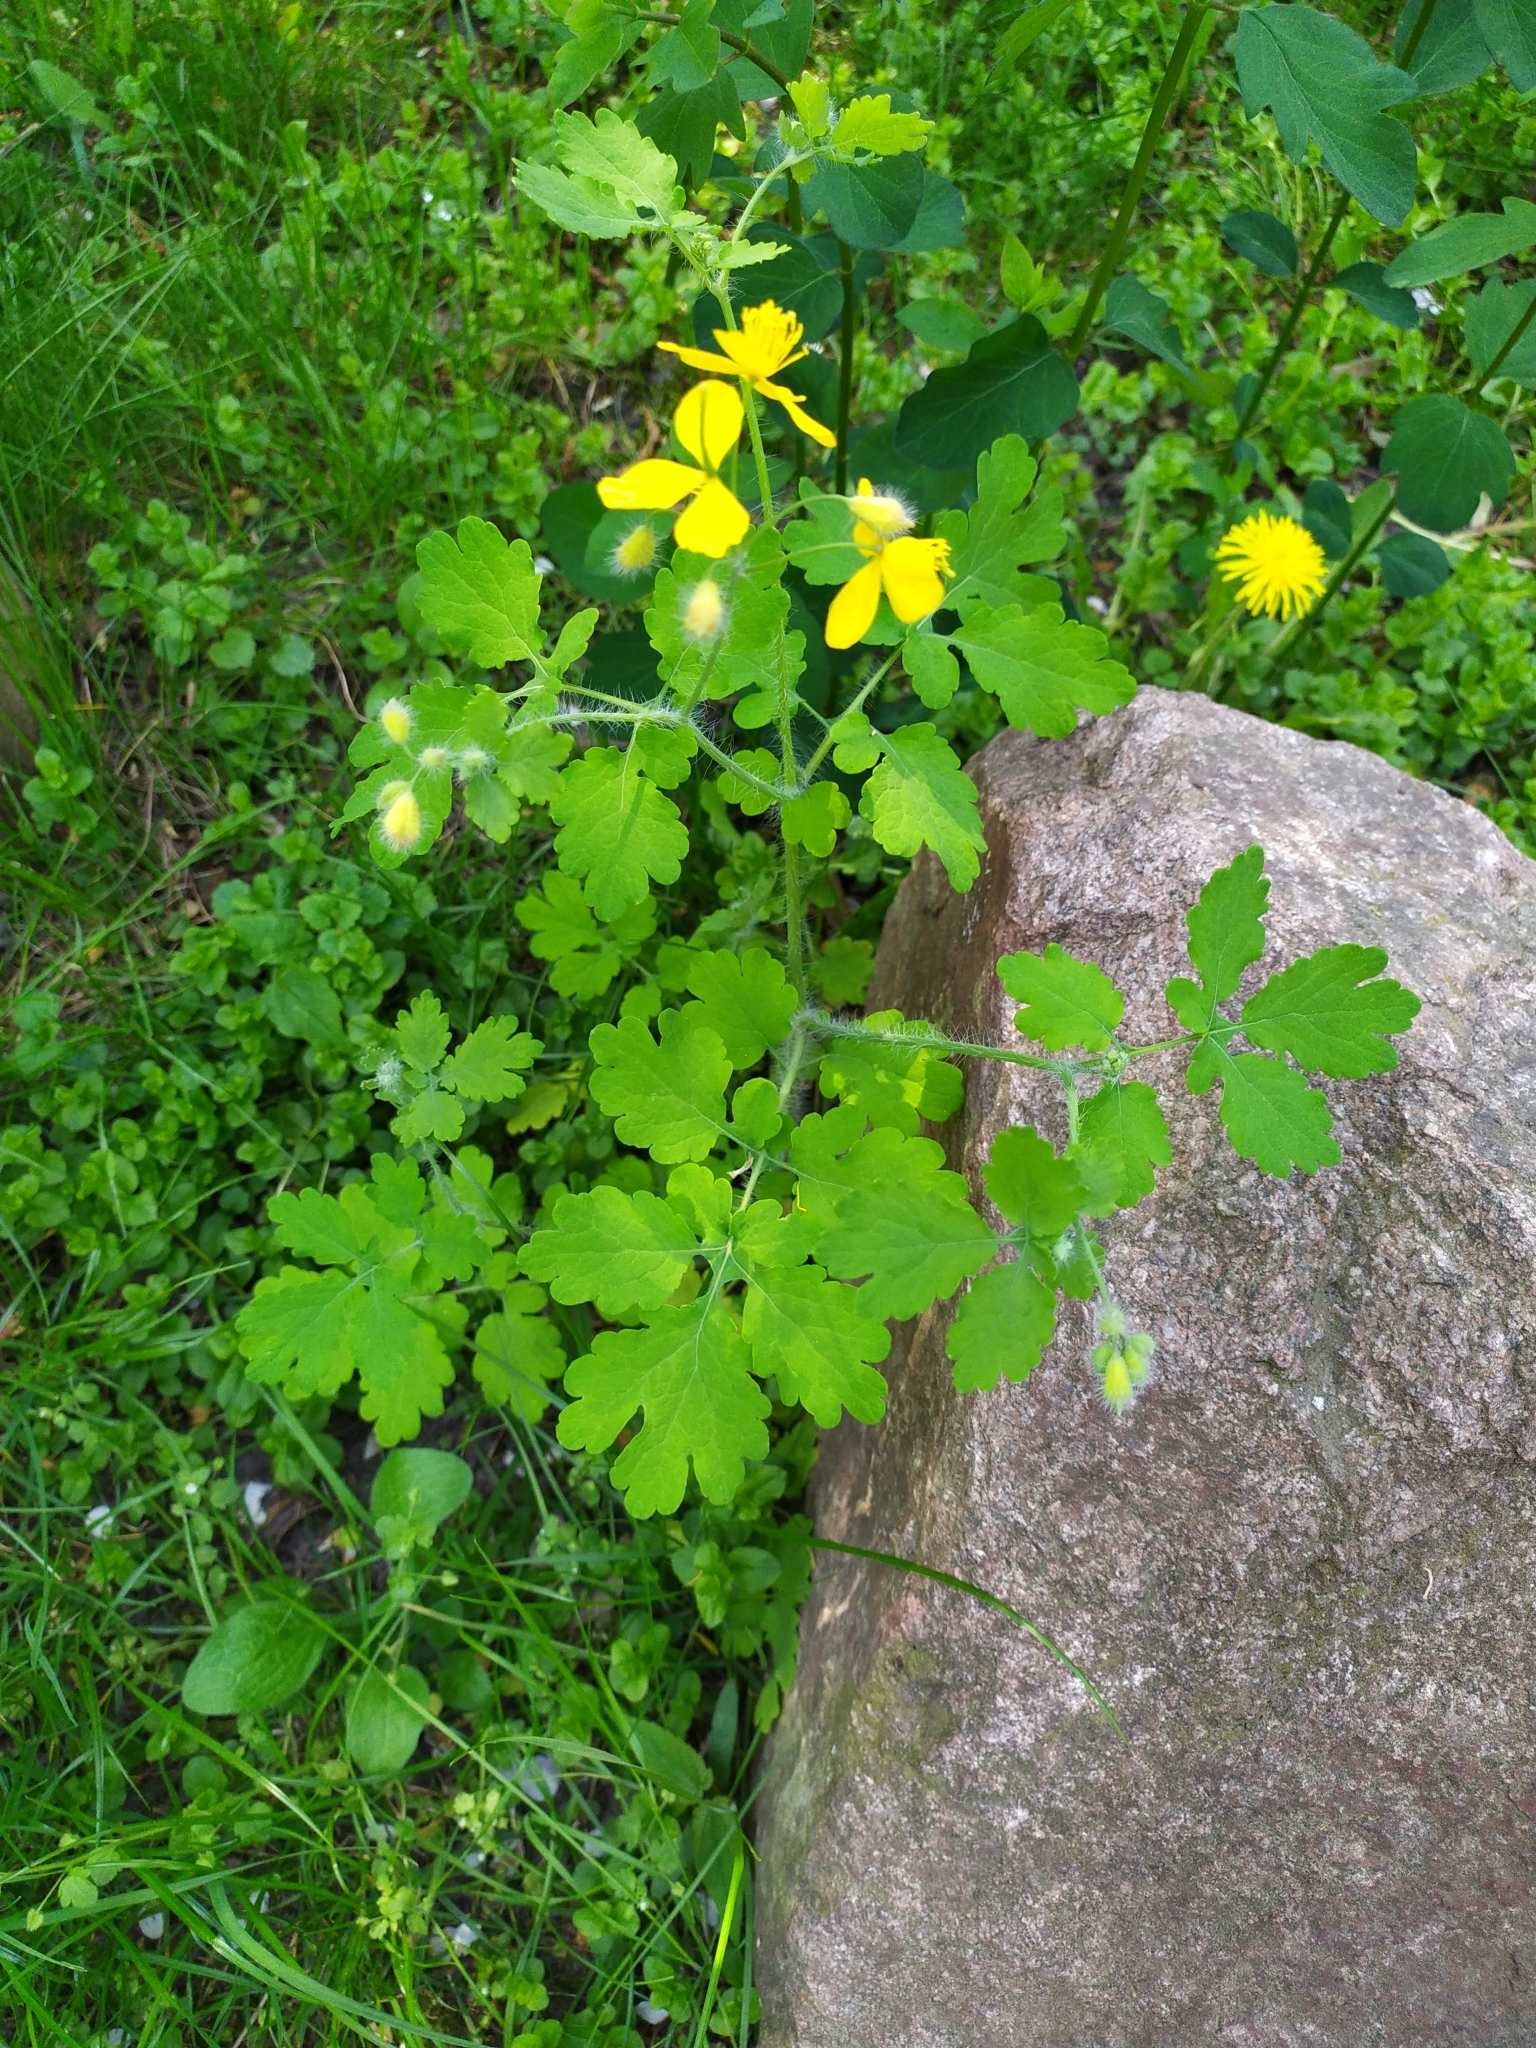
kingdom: Plantae
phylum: Tracheophyta
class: Magnoliopsida
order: Ranunculales
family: Papaveraceae
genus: Chelidonium
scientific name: Chelidonium majus
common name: Greater celandine
